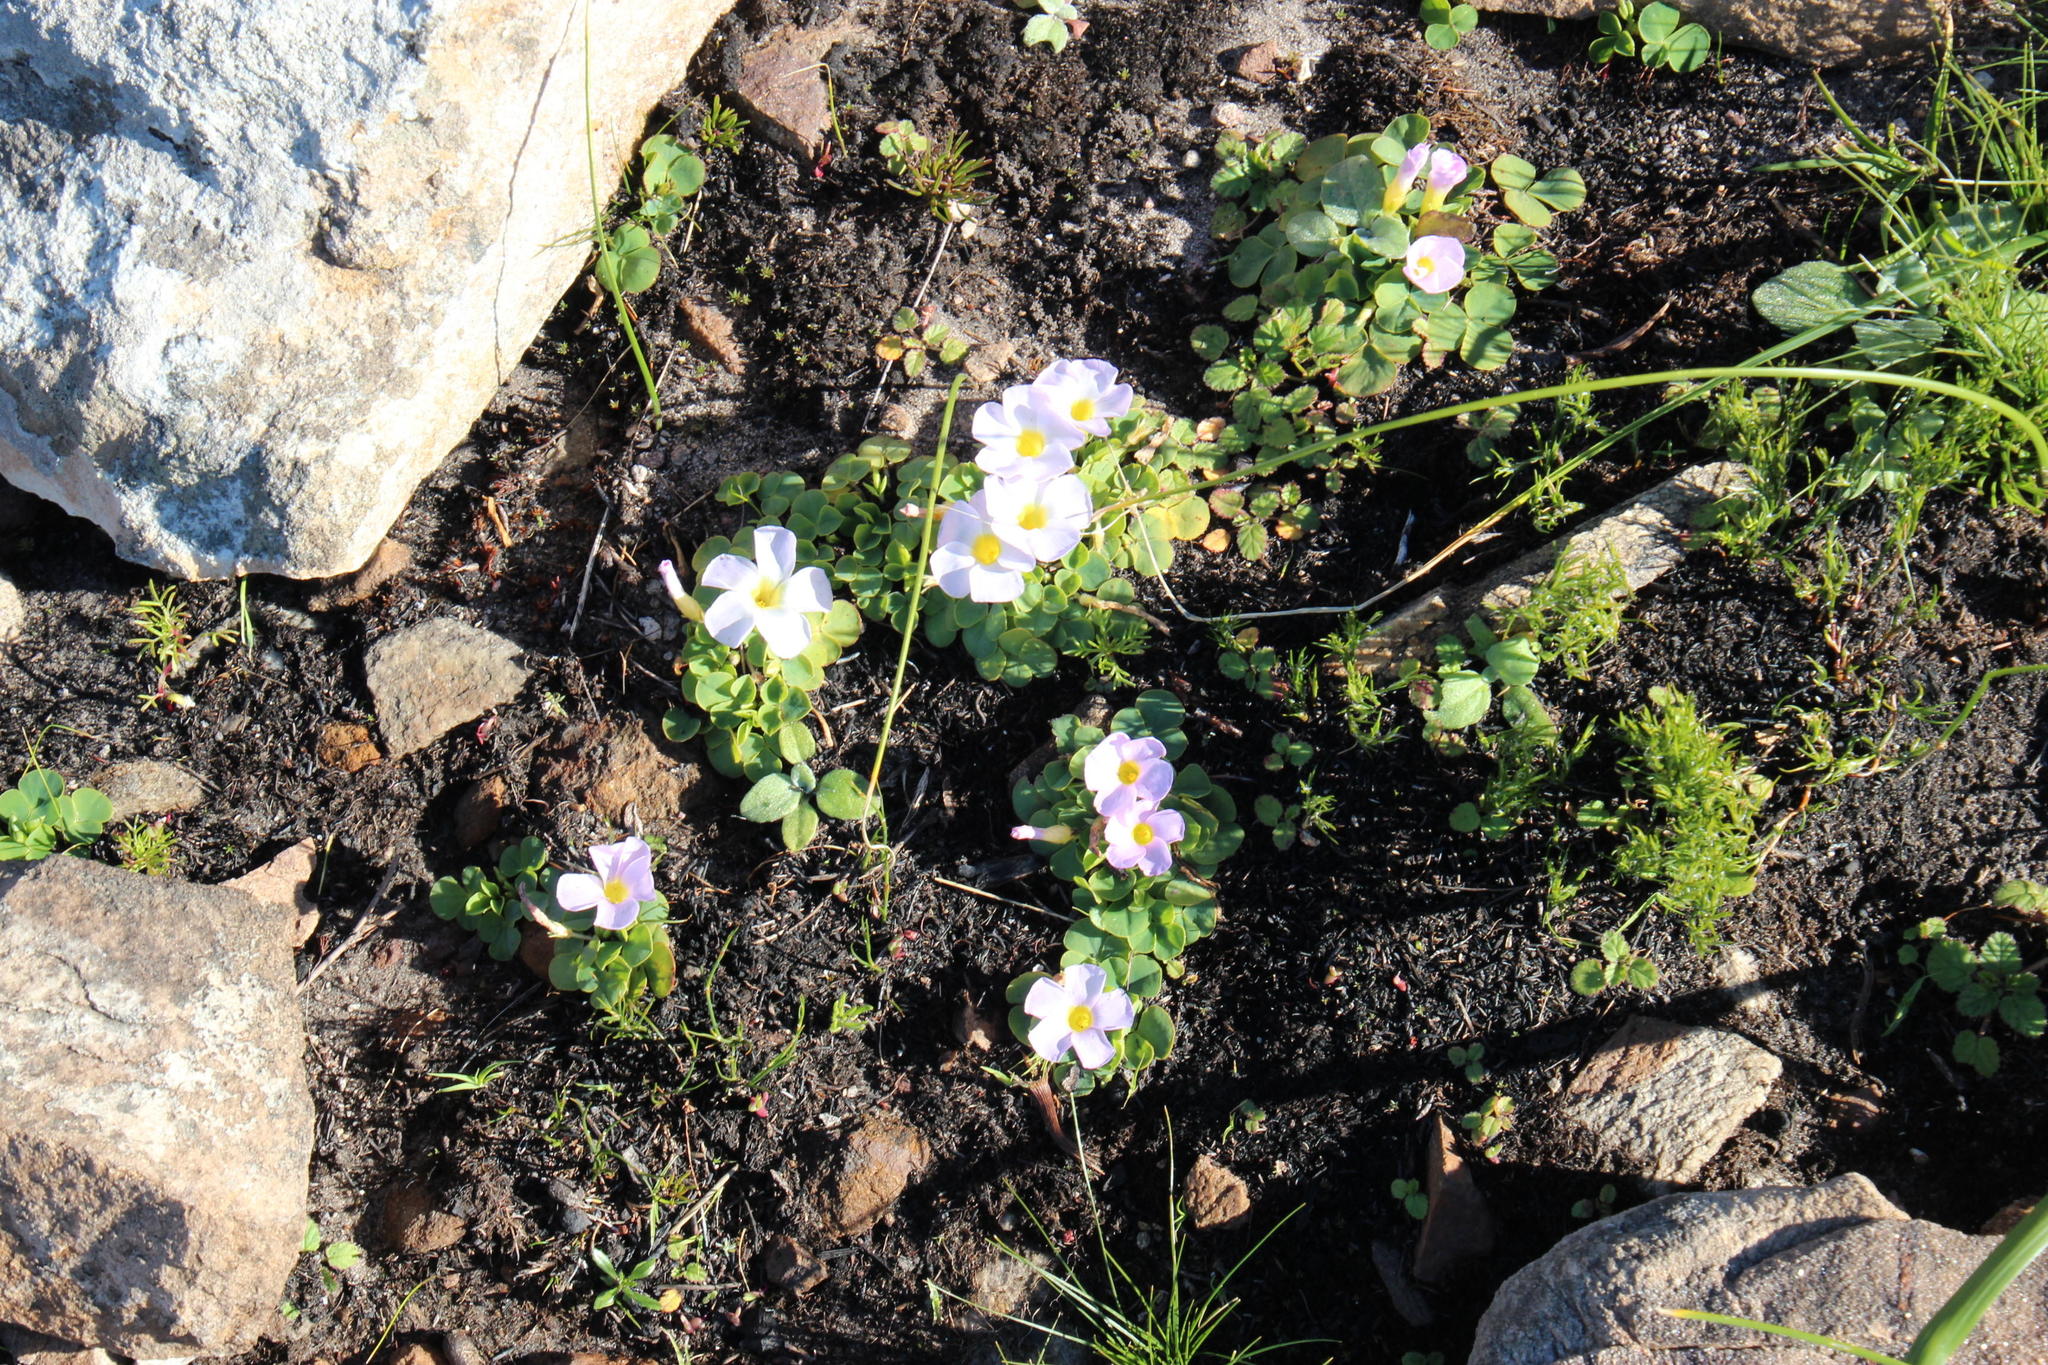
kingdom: Plantae
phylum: Tracheophyta
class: Magnoliopsida
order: Oxalidales
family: Oxalidaceae
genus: Oxalis
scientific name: Oxalis purpurea
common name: Purple woodsorrel
